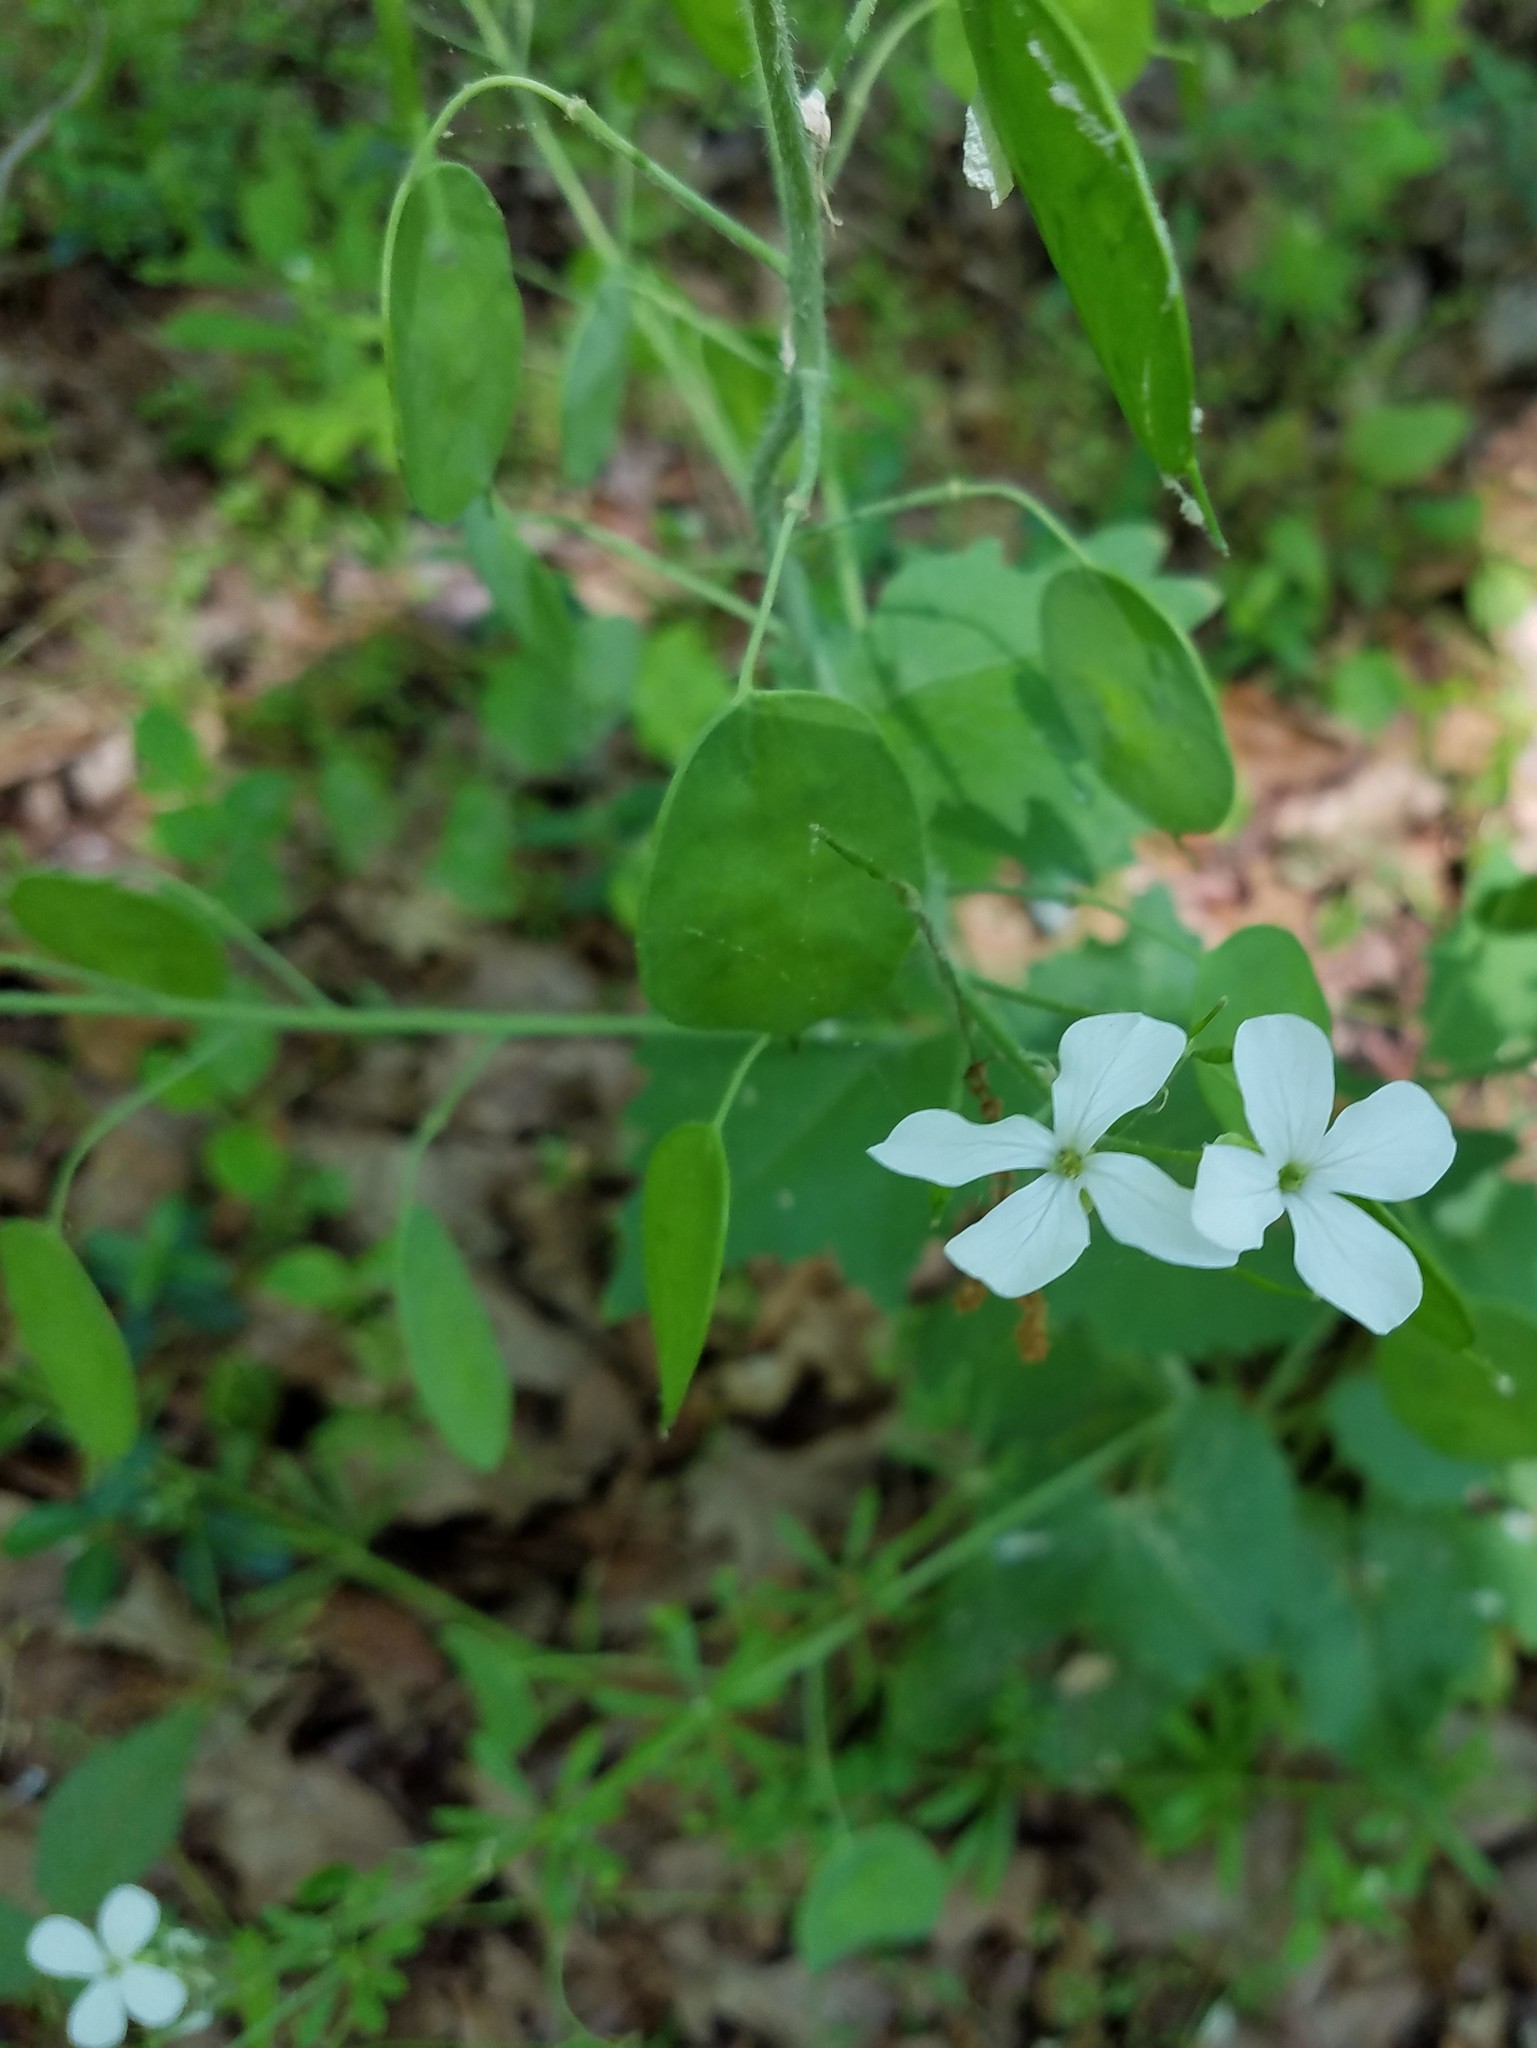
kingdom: Plantae
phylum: Tracheophyta
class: Magnoliopsida
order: Brassicales
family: Brassicaceae
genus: Lunaria
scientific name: Lunaria annua
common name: Honesty
